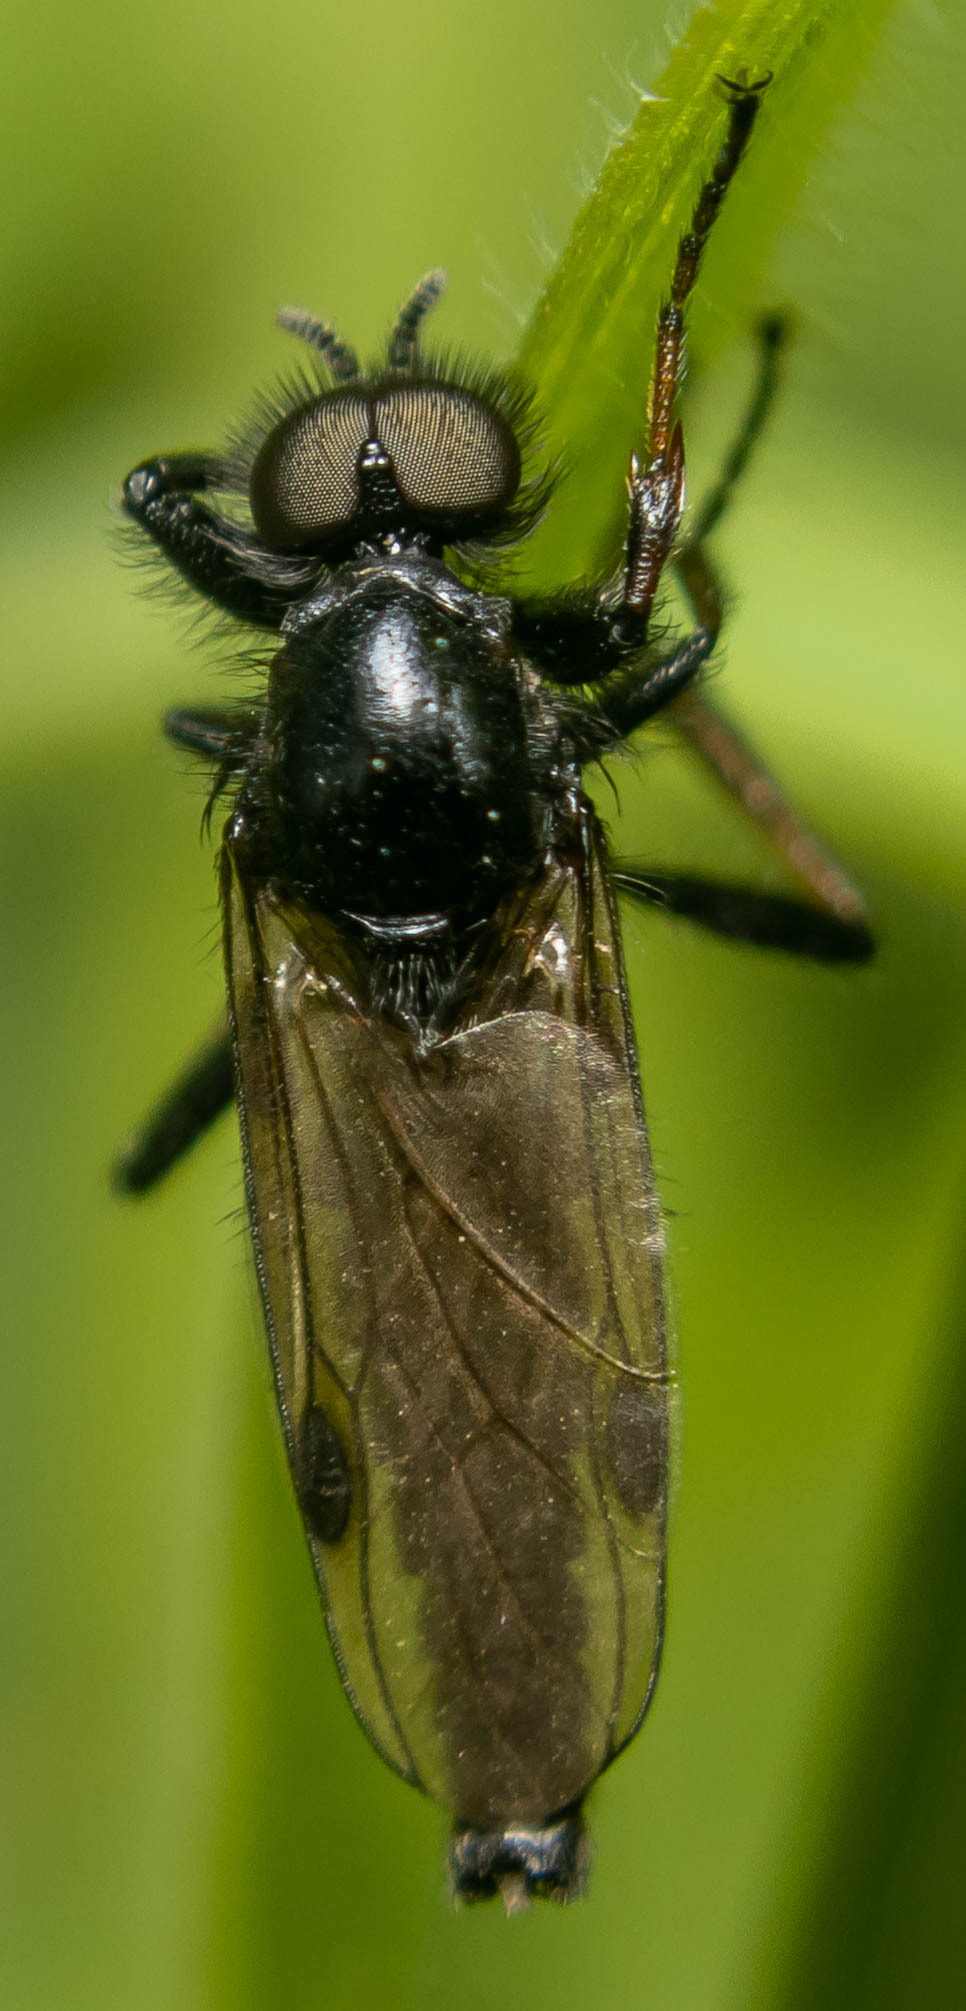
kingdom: Animalia
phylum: Arthropoda
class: Insecta
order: Diptera
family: Bibionidae
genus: Bibio
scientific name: Bibio johannis
